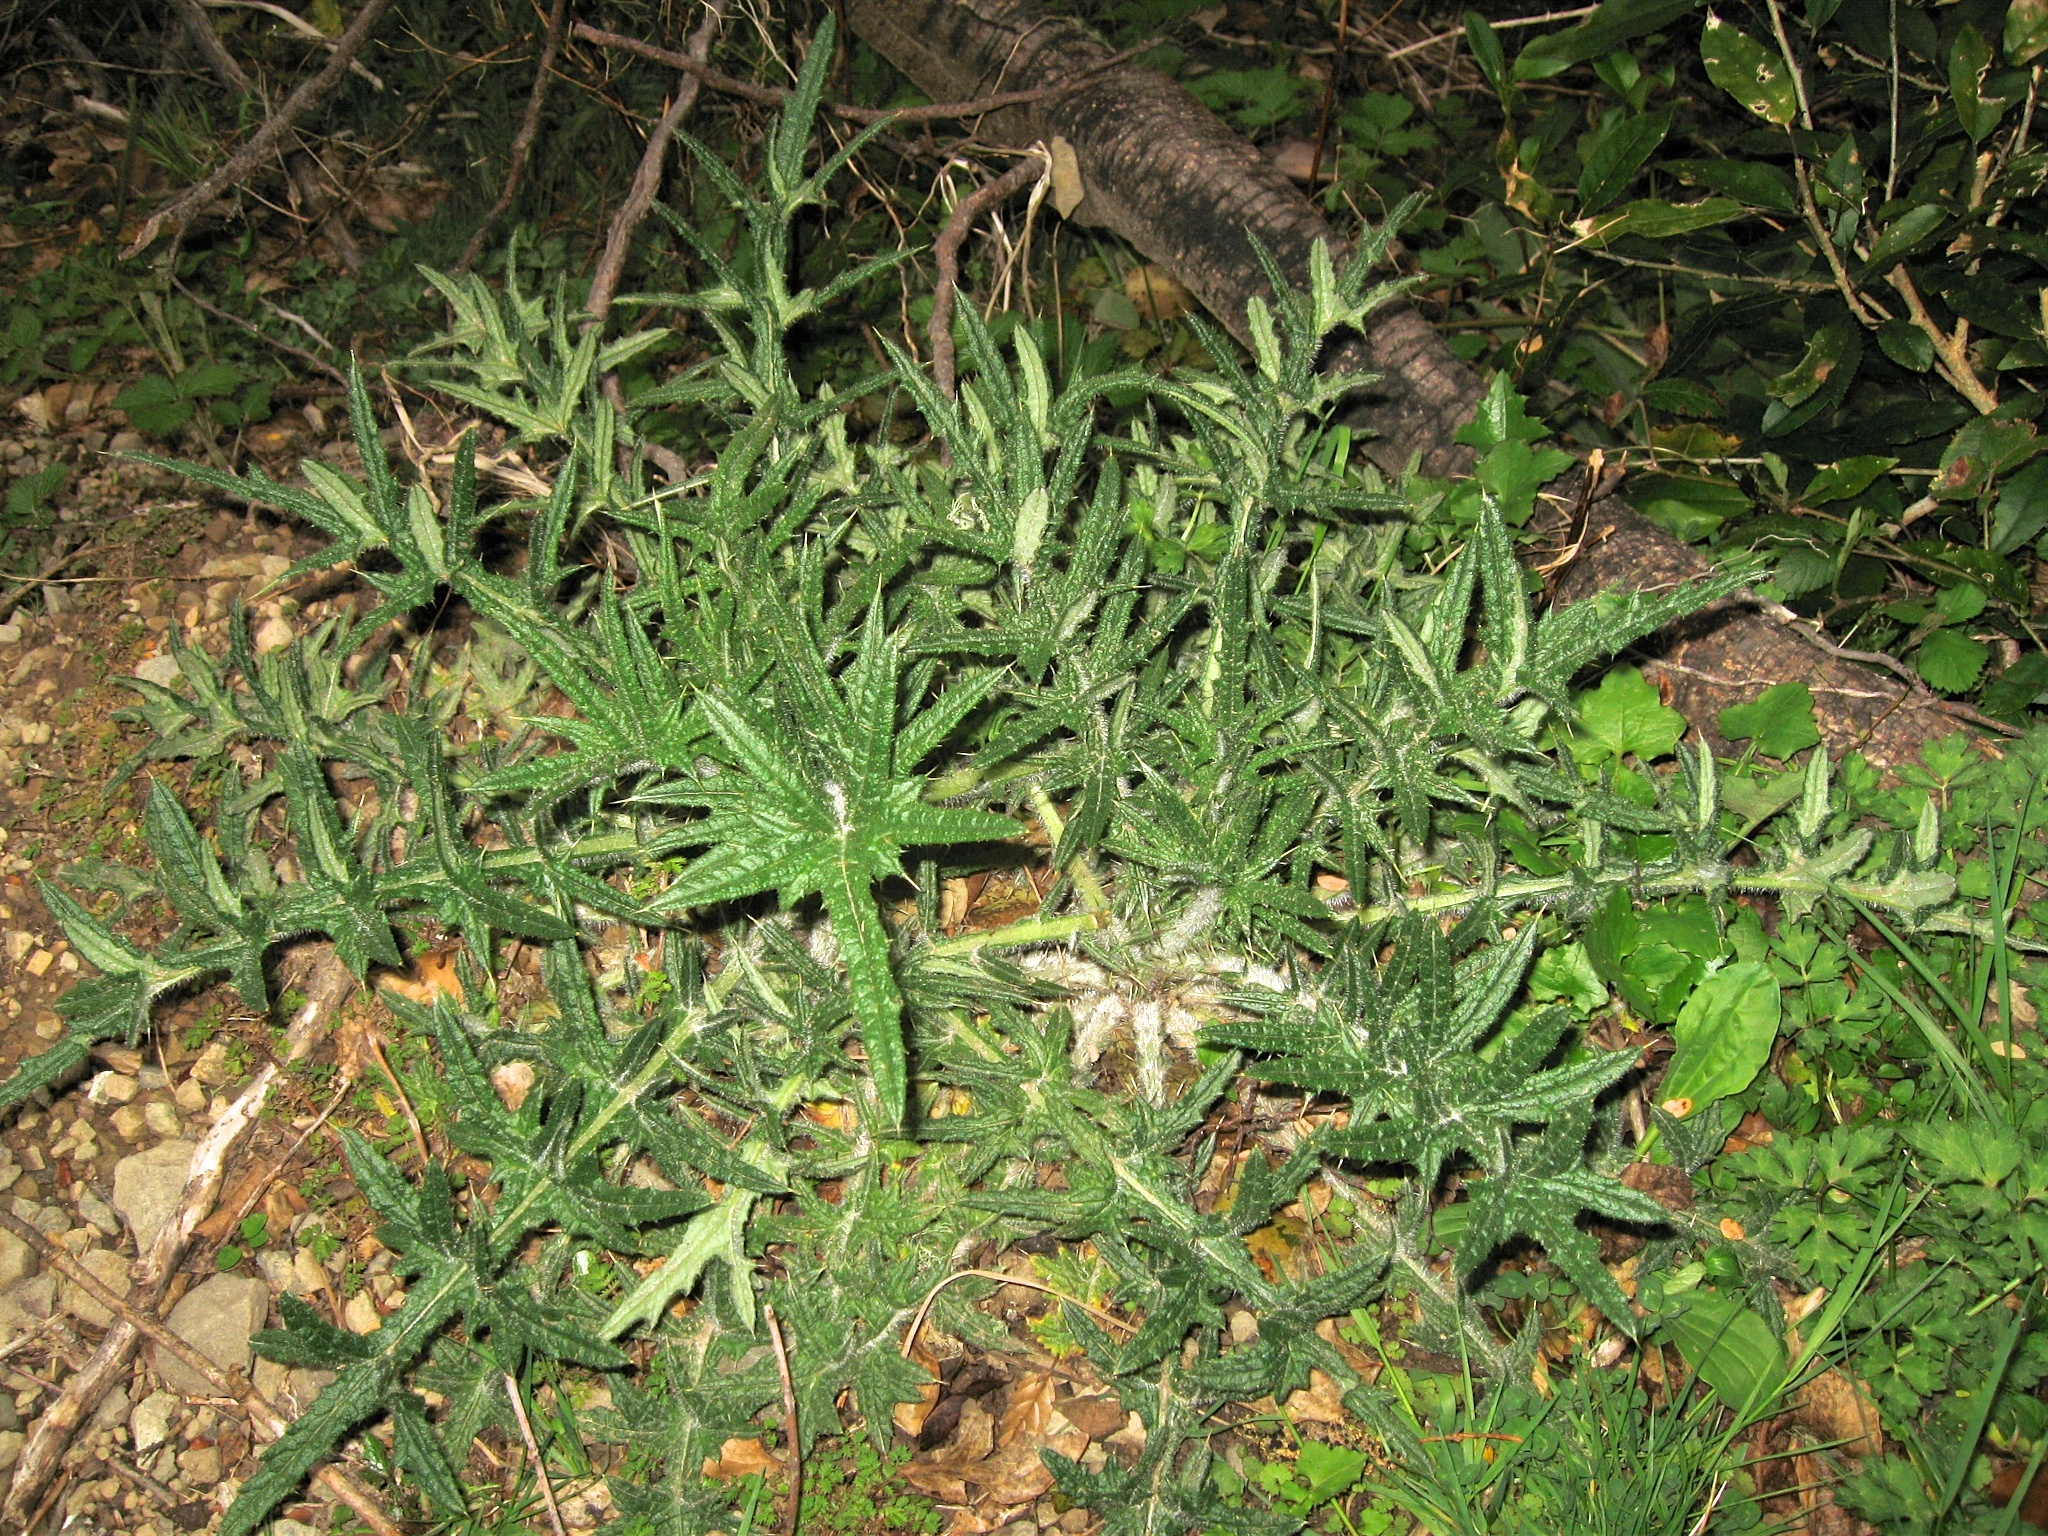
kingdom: Plantae
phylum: Tracheophyta
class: Magnoliopsida
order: Asterales
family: Asteraceae
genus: Cirsium
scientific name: Cirsium vulgare
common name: Bull thistle
